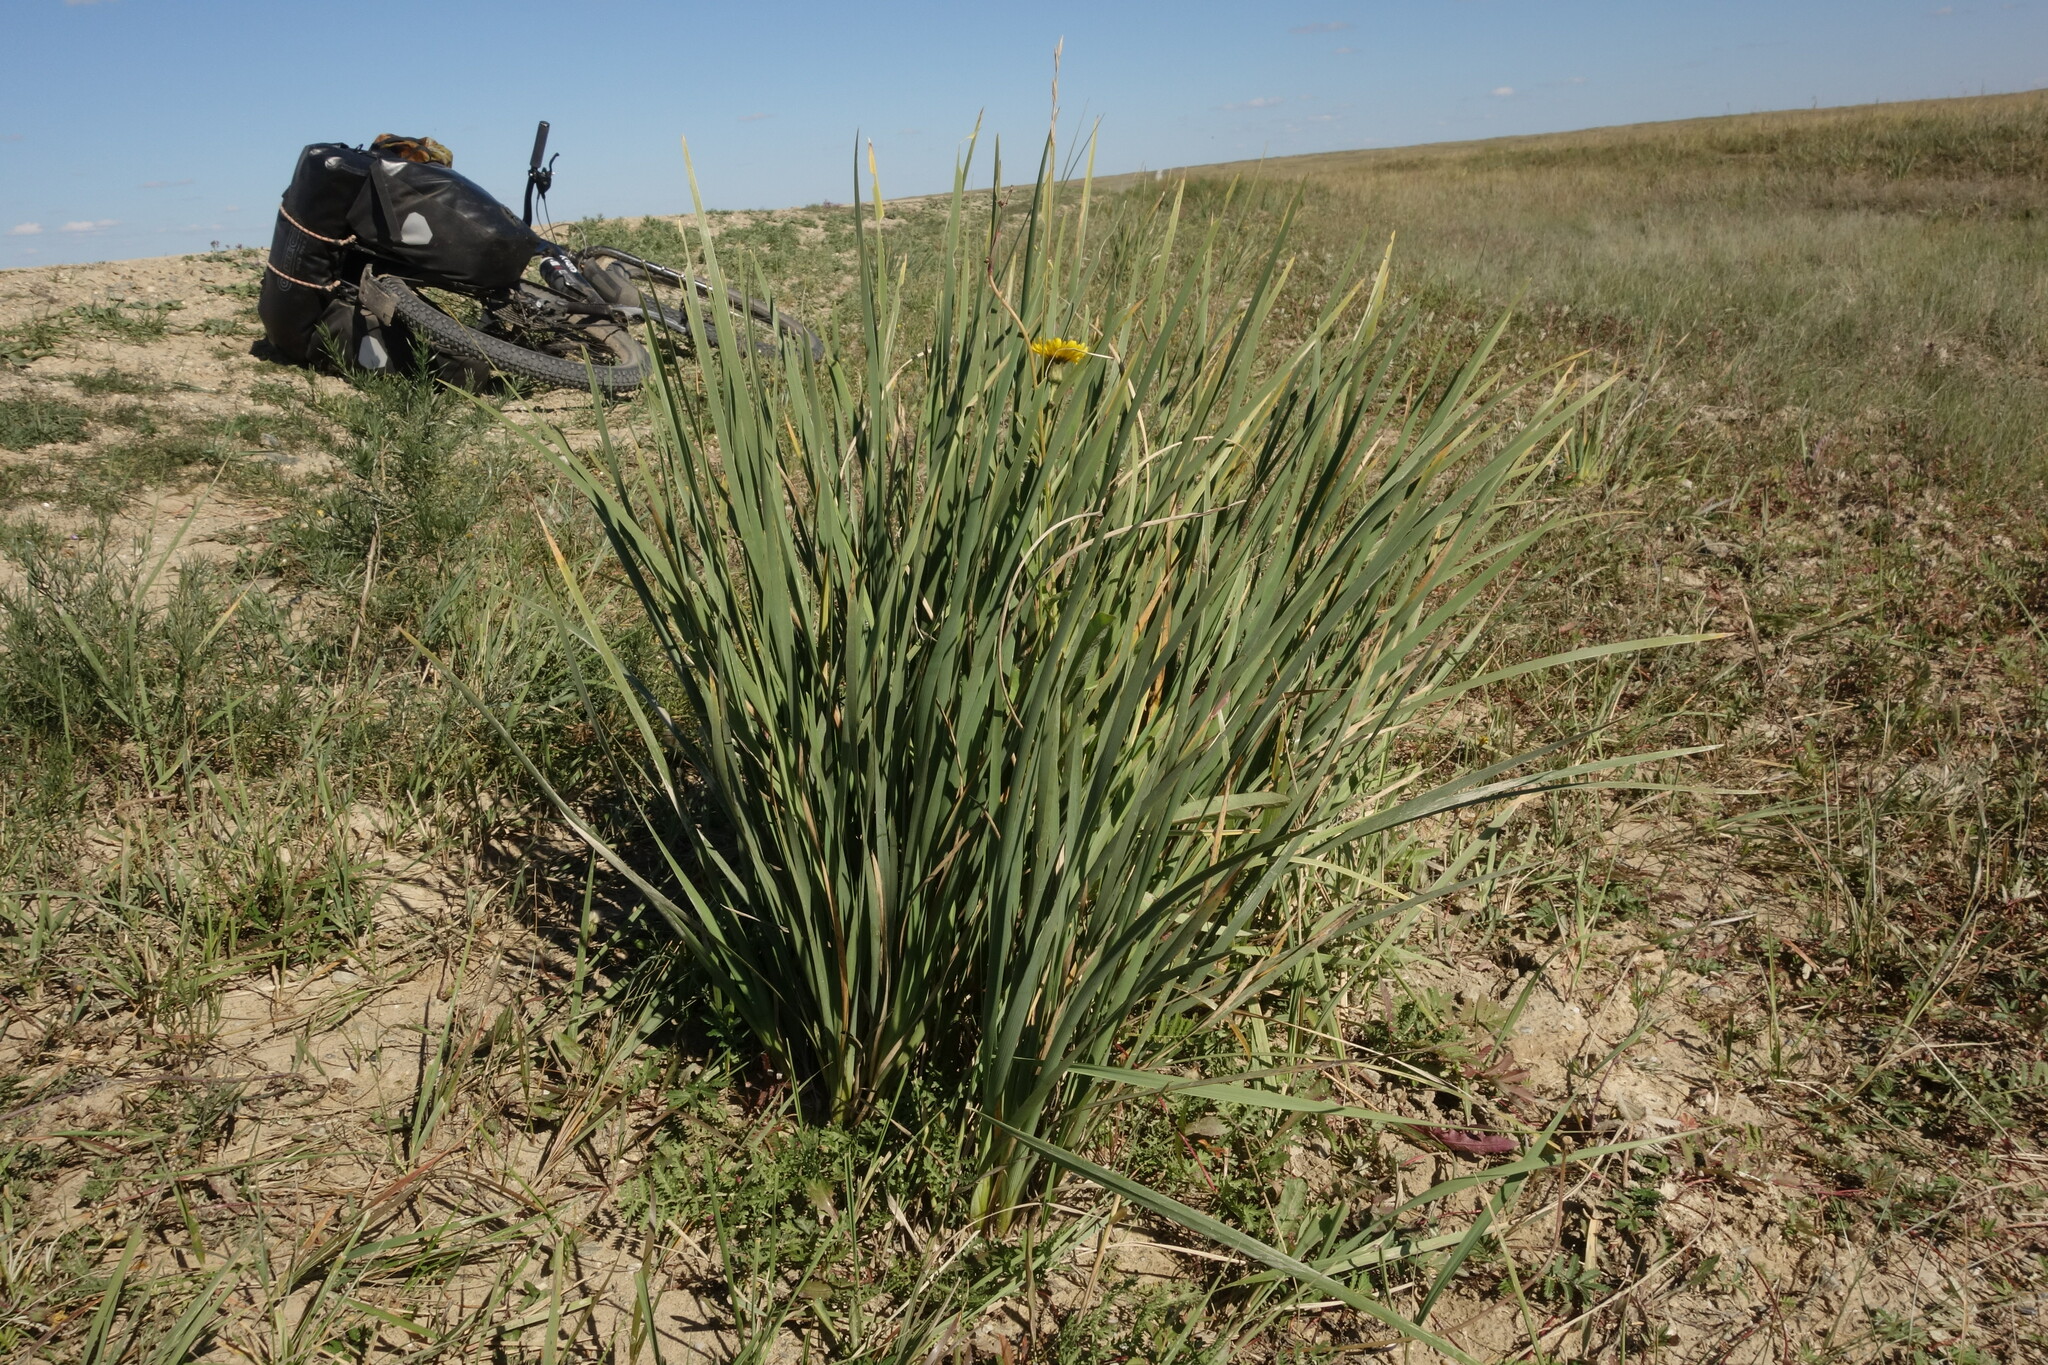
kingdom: Plantae
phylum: Tracheophyta
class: Liliopsida
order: Asparagales
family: Iridaceae
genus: Iris
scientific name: Iris lactea
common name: White-flower chinese iris
